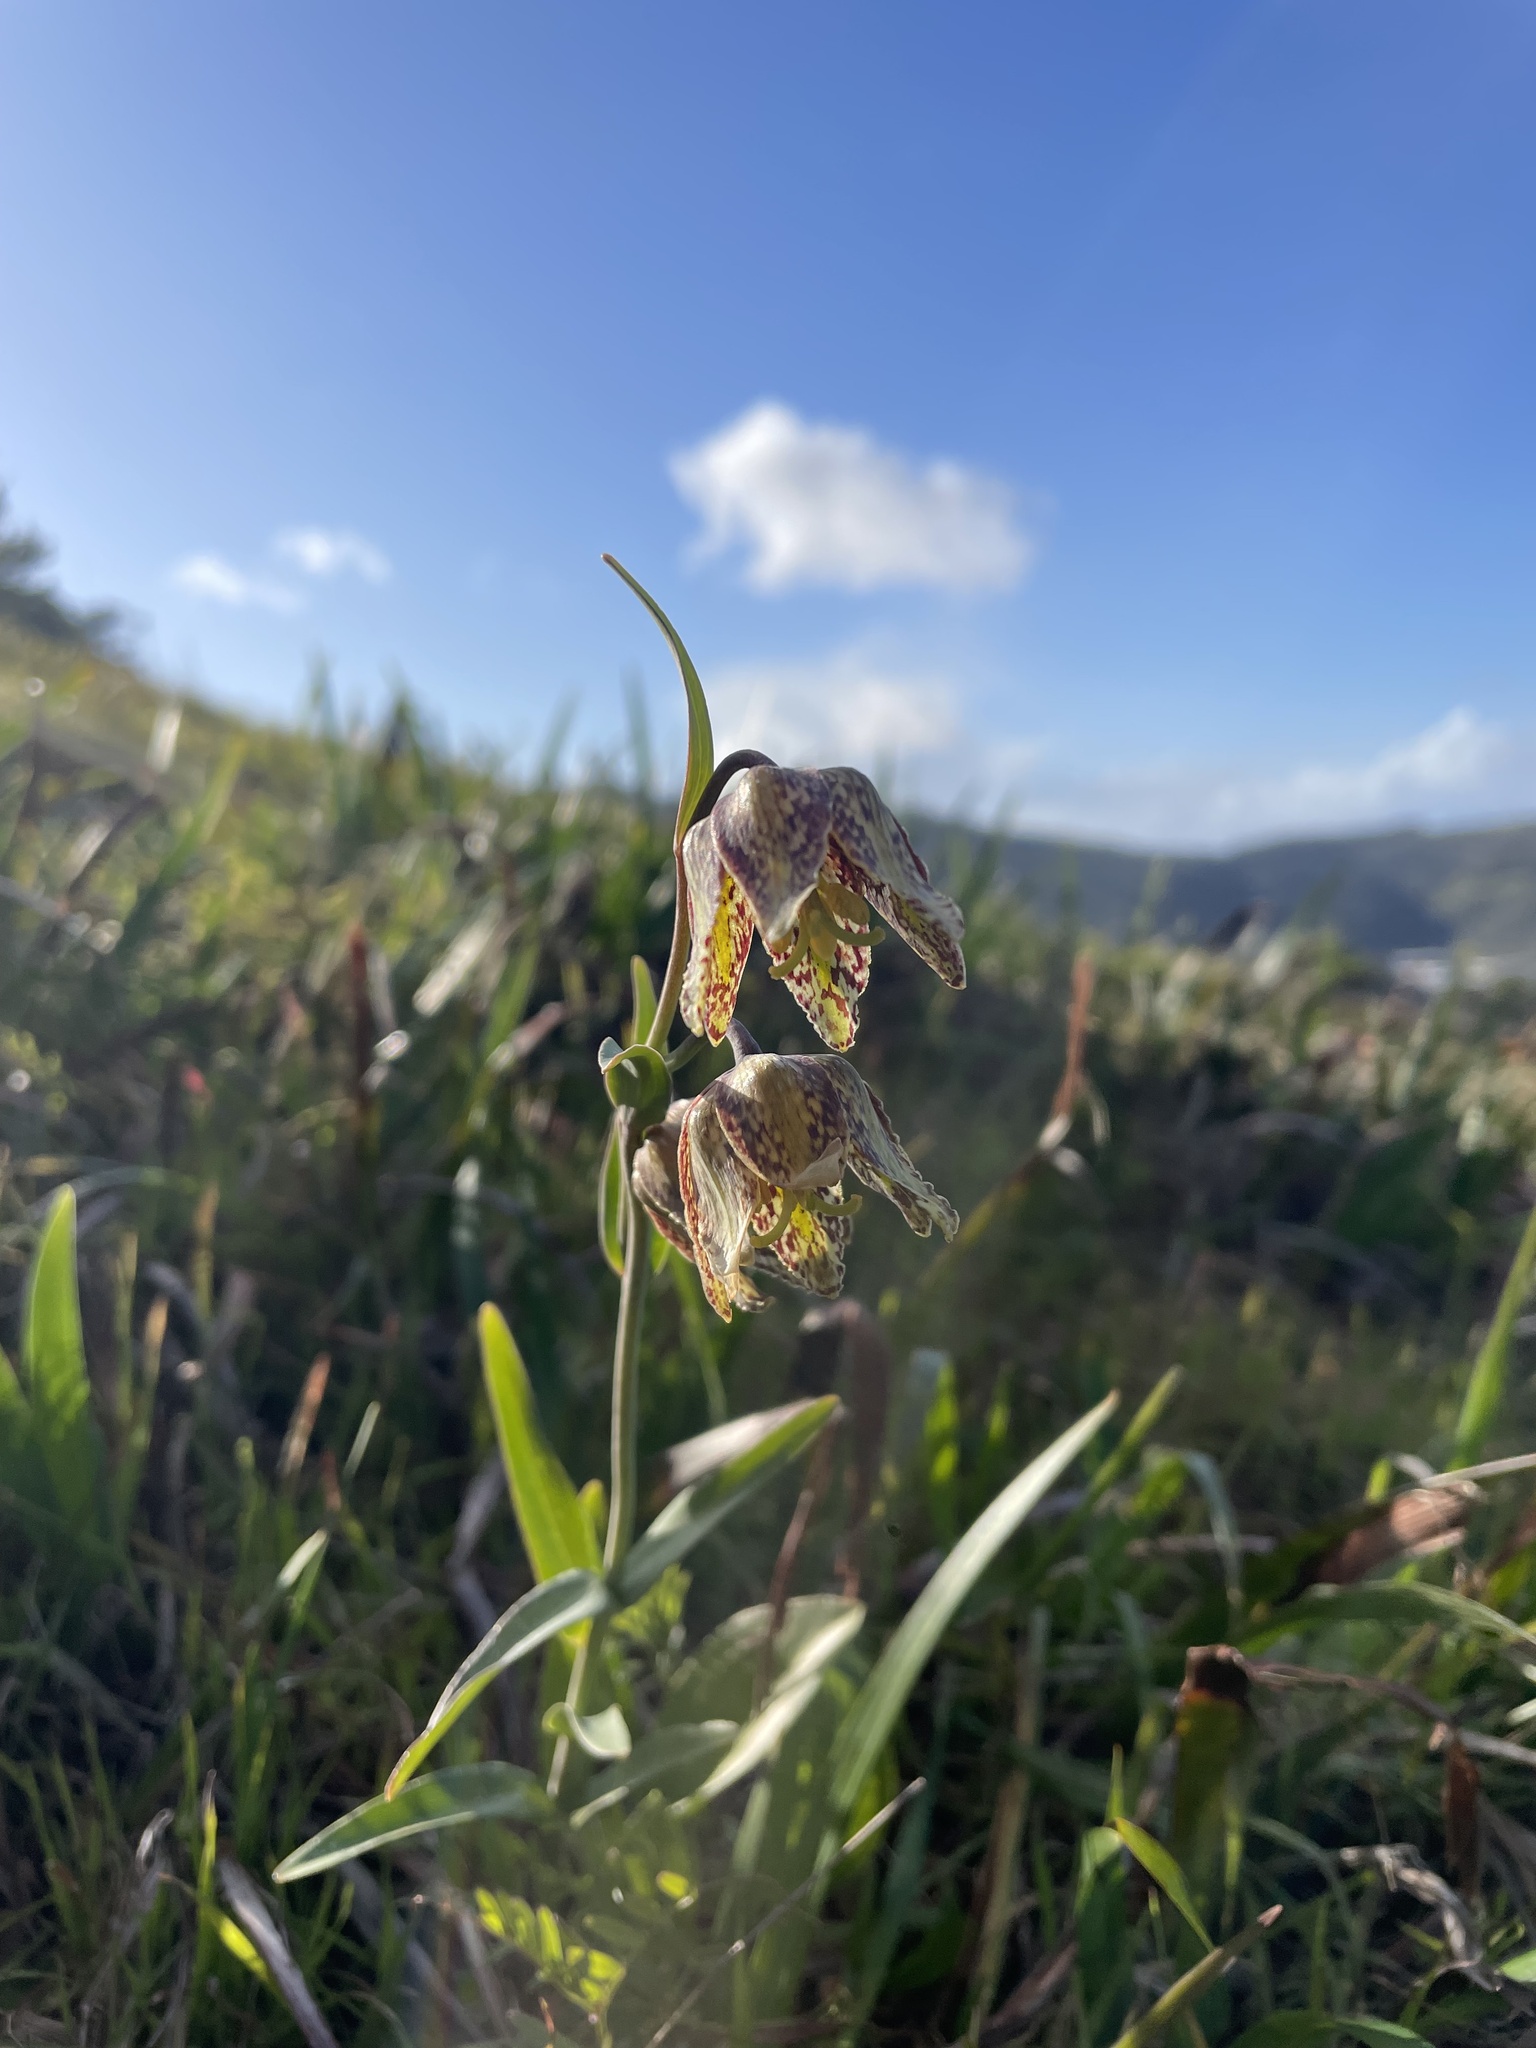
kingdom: Plantae
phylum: Tracheophyta
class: Liliopsida
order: Liliales
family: Liliaceae
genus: Fritillaria
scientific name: Fritillaria affinis
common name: Ojai fritillary
